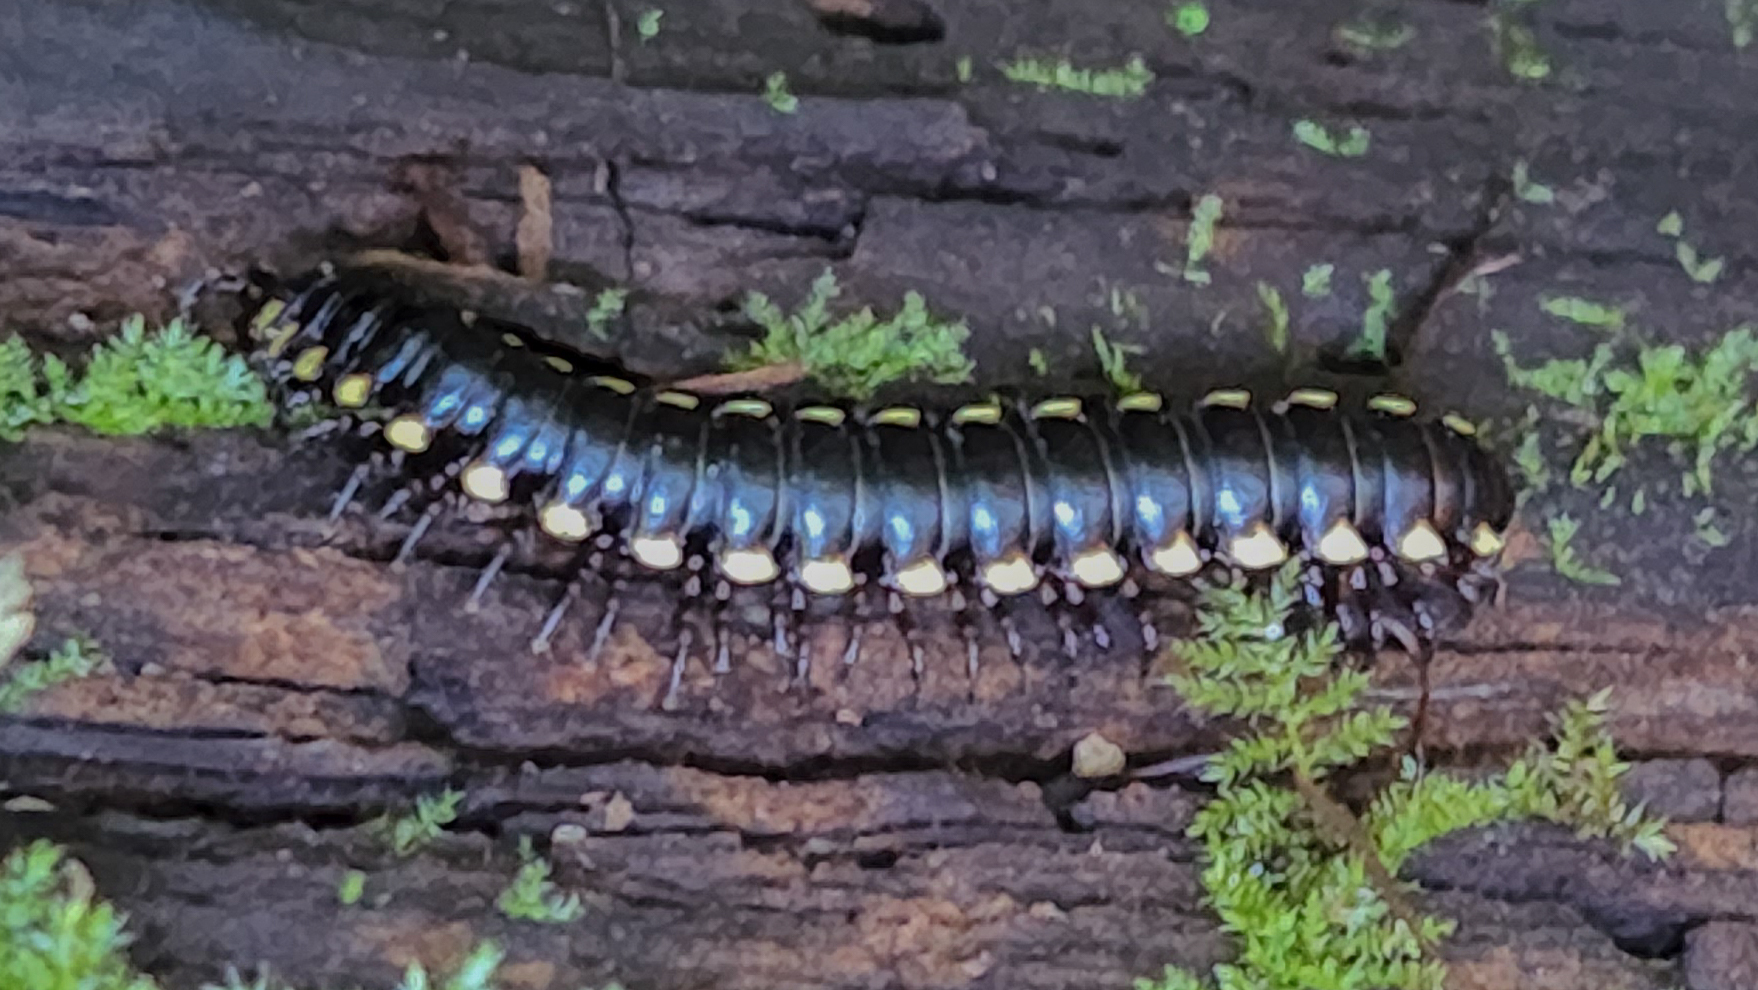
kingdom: Animalia
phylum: Arthropoda
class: Diplopoda
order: Polydesmida
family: Xystodesmidae
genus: Harpaphe
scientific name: Harpaphe haydeniana
